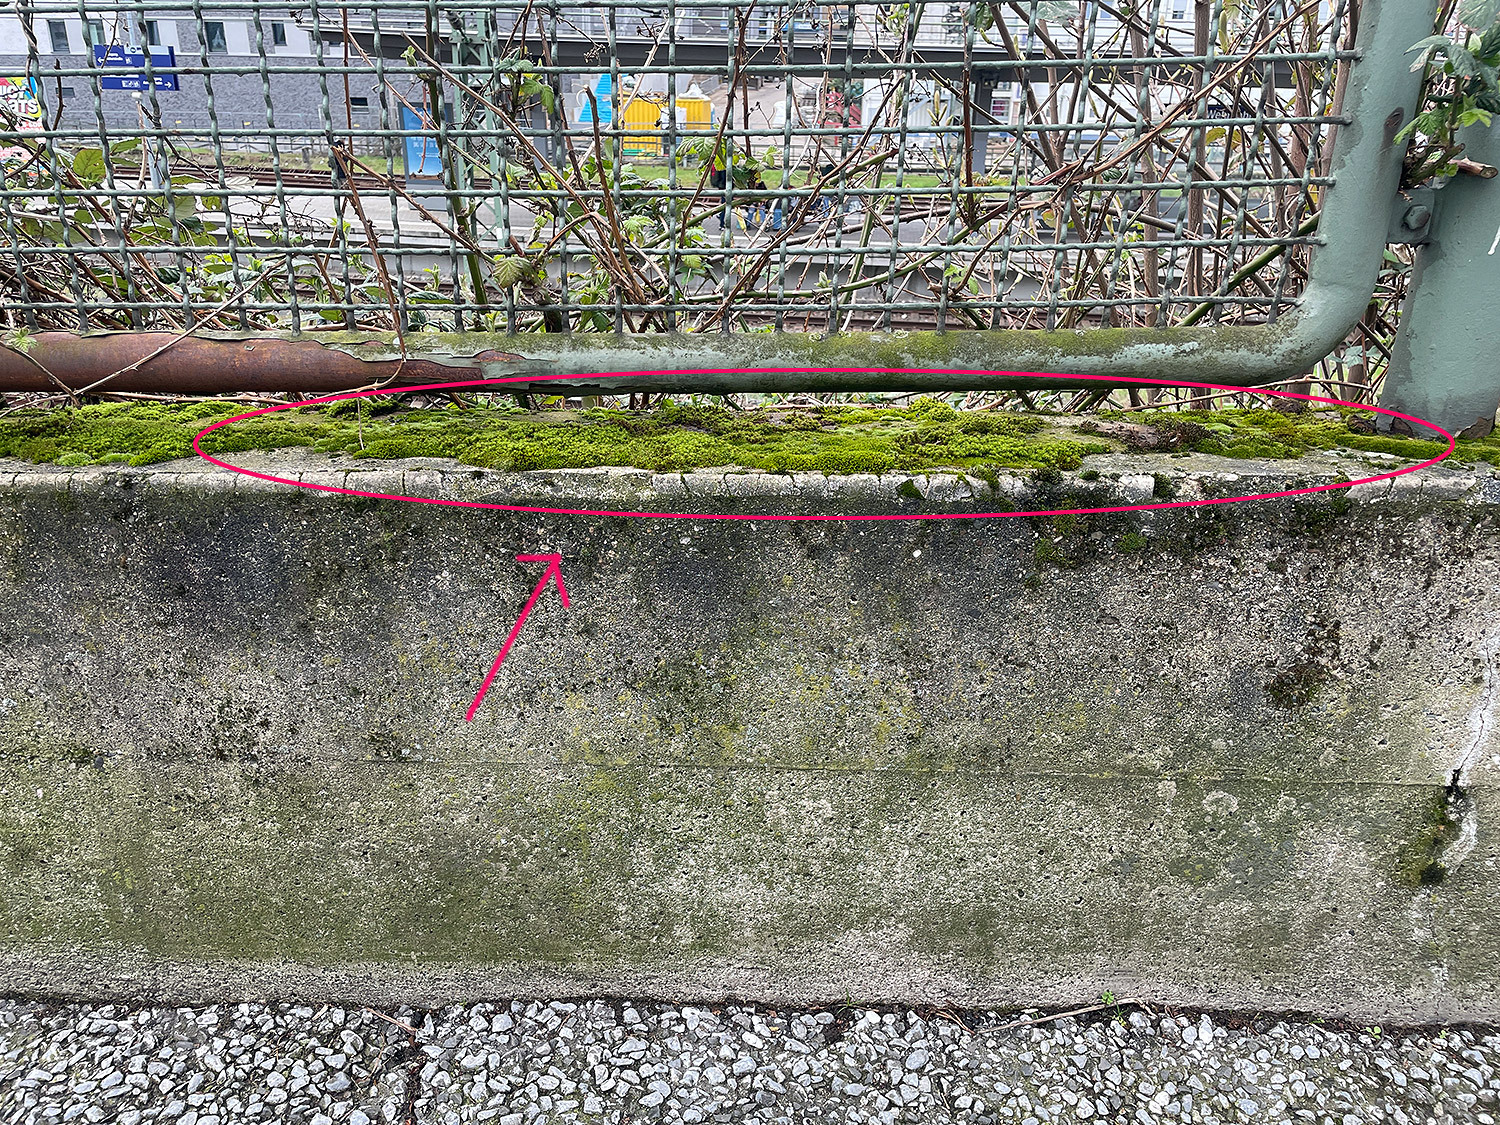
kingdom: Plantae
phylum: Bryophyta
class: Bryopsida
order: Pottiales
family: Pottiaceae
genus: Syntrichia
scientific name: Syntrichia ruralis
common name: Sidewalk screw moss
